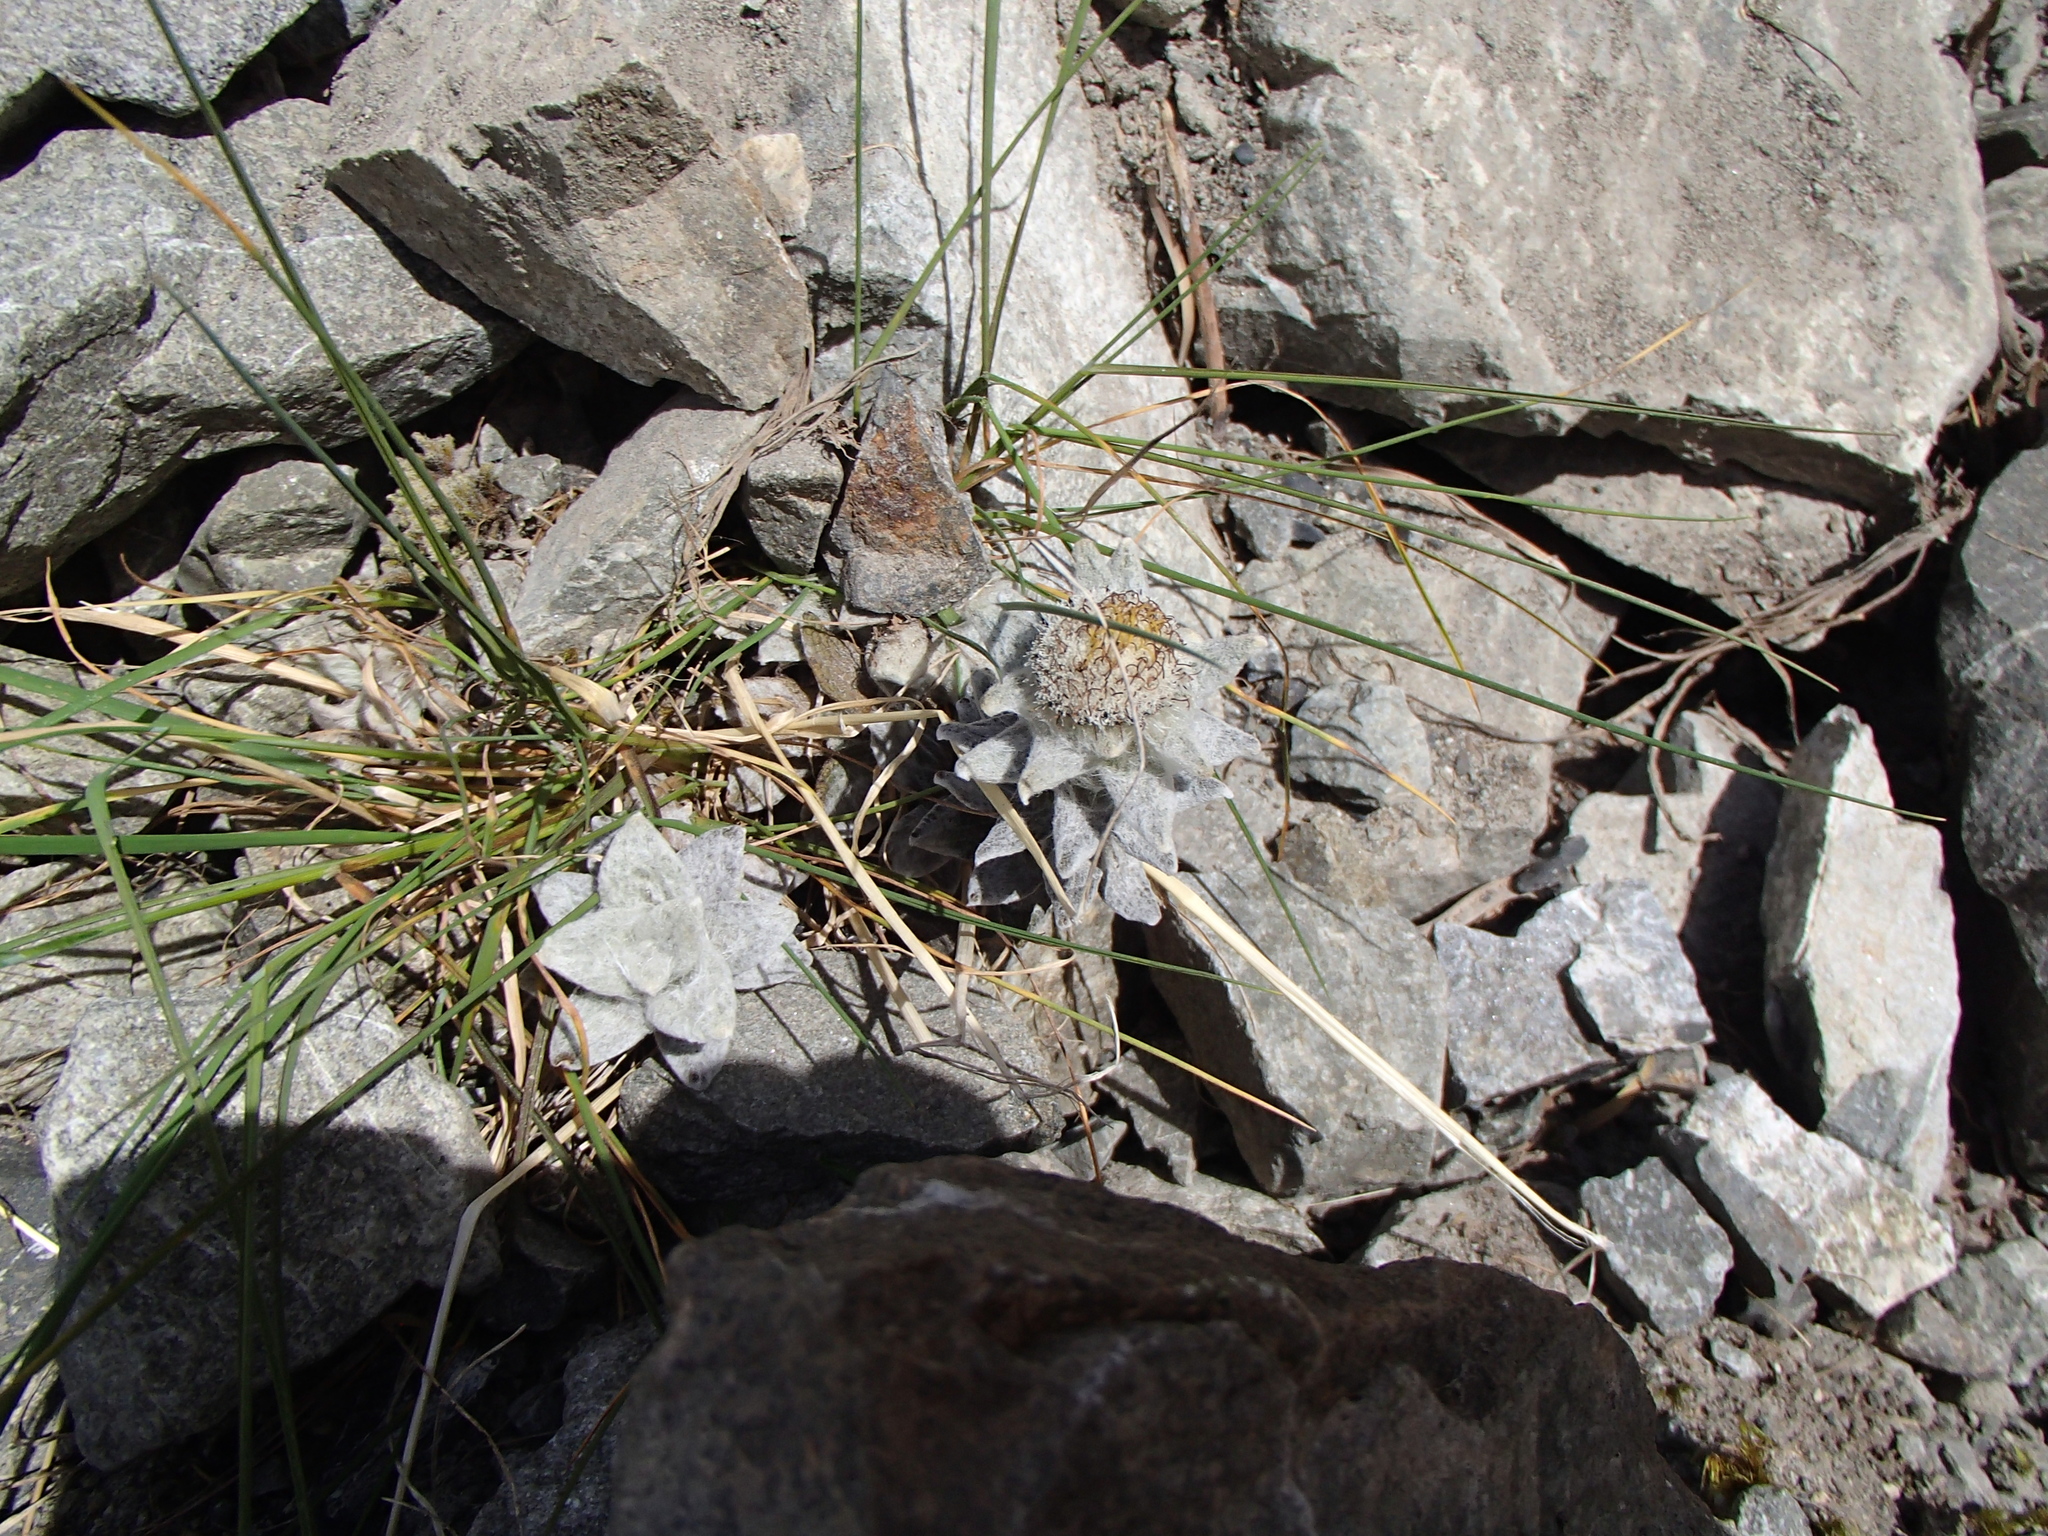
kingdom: Plantae
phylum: Tracheophyta
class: Magnoliopsida
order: Asterales
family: Asteraceae
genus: Haastia
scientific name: Haastia sinclairii
